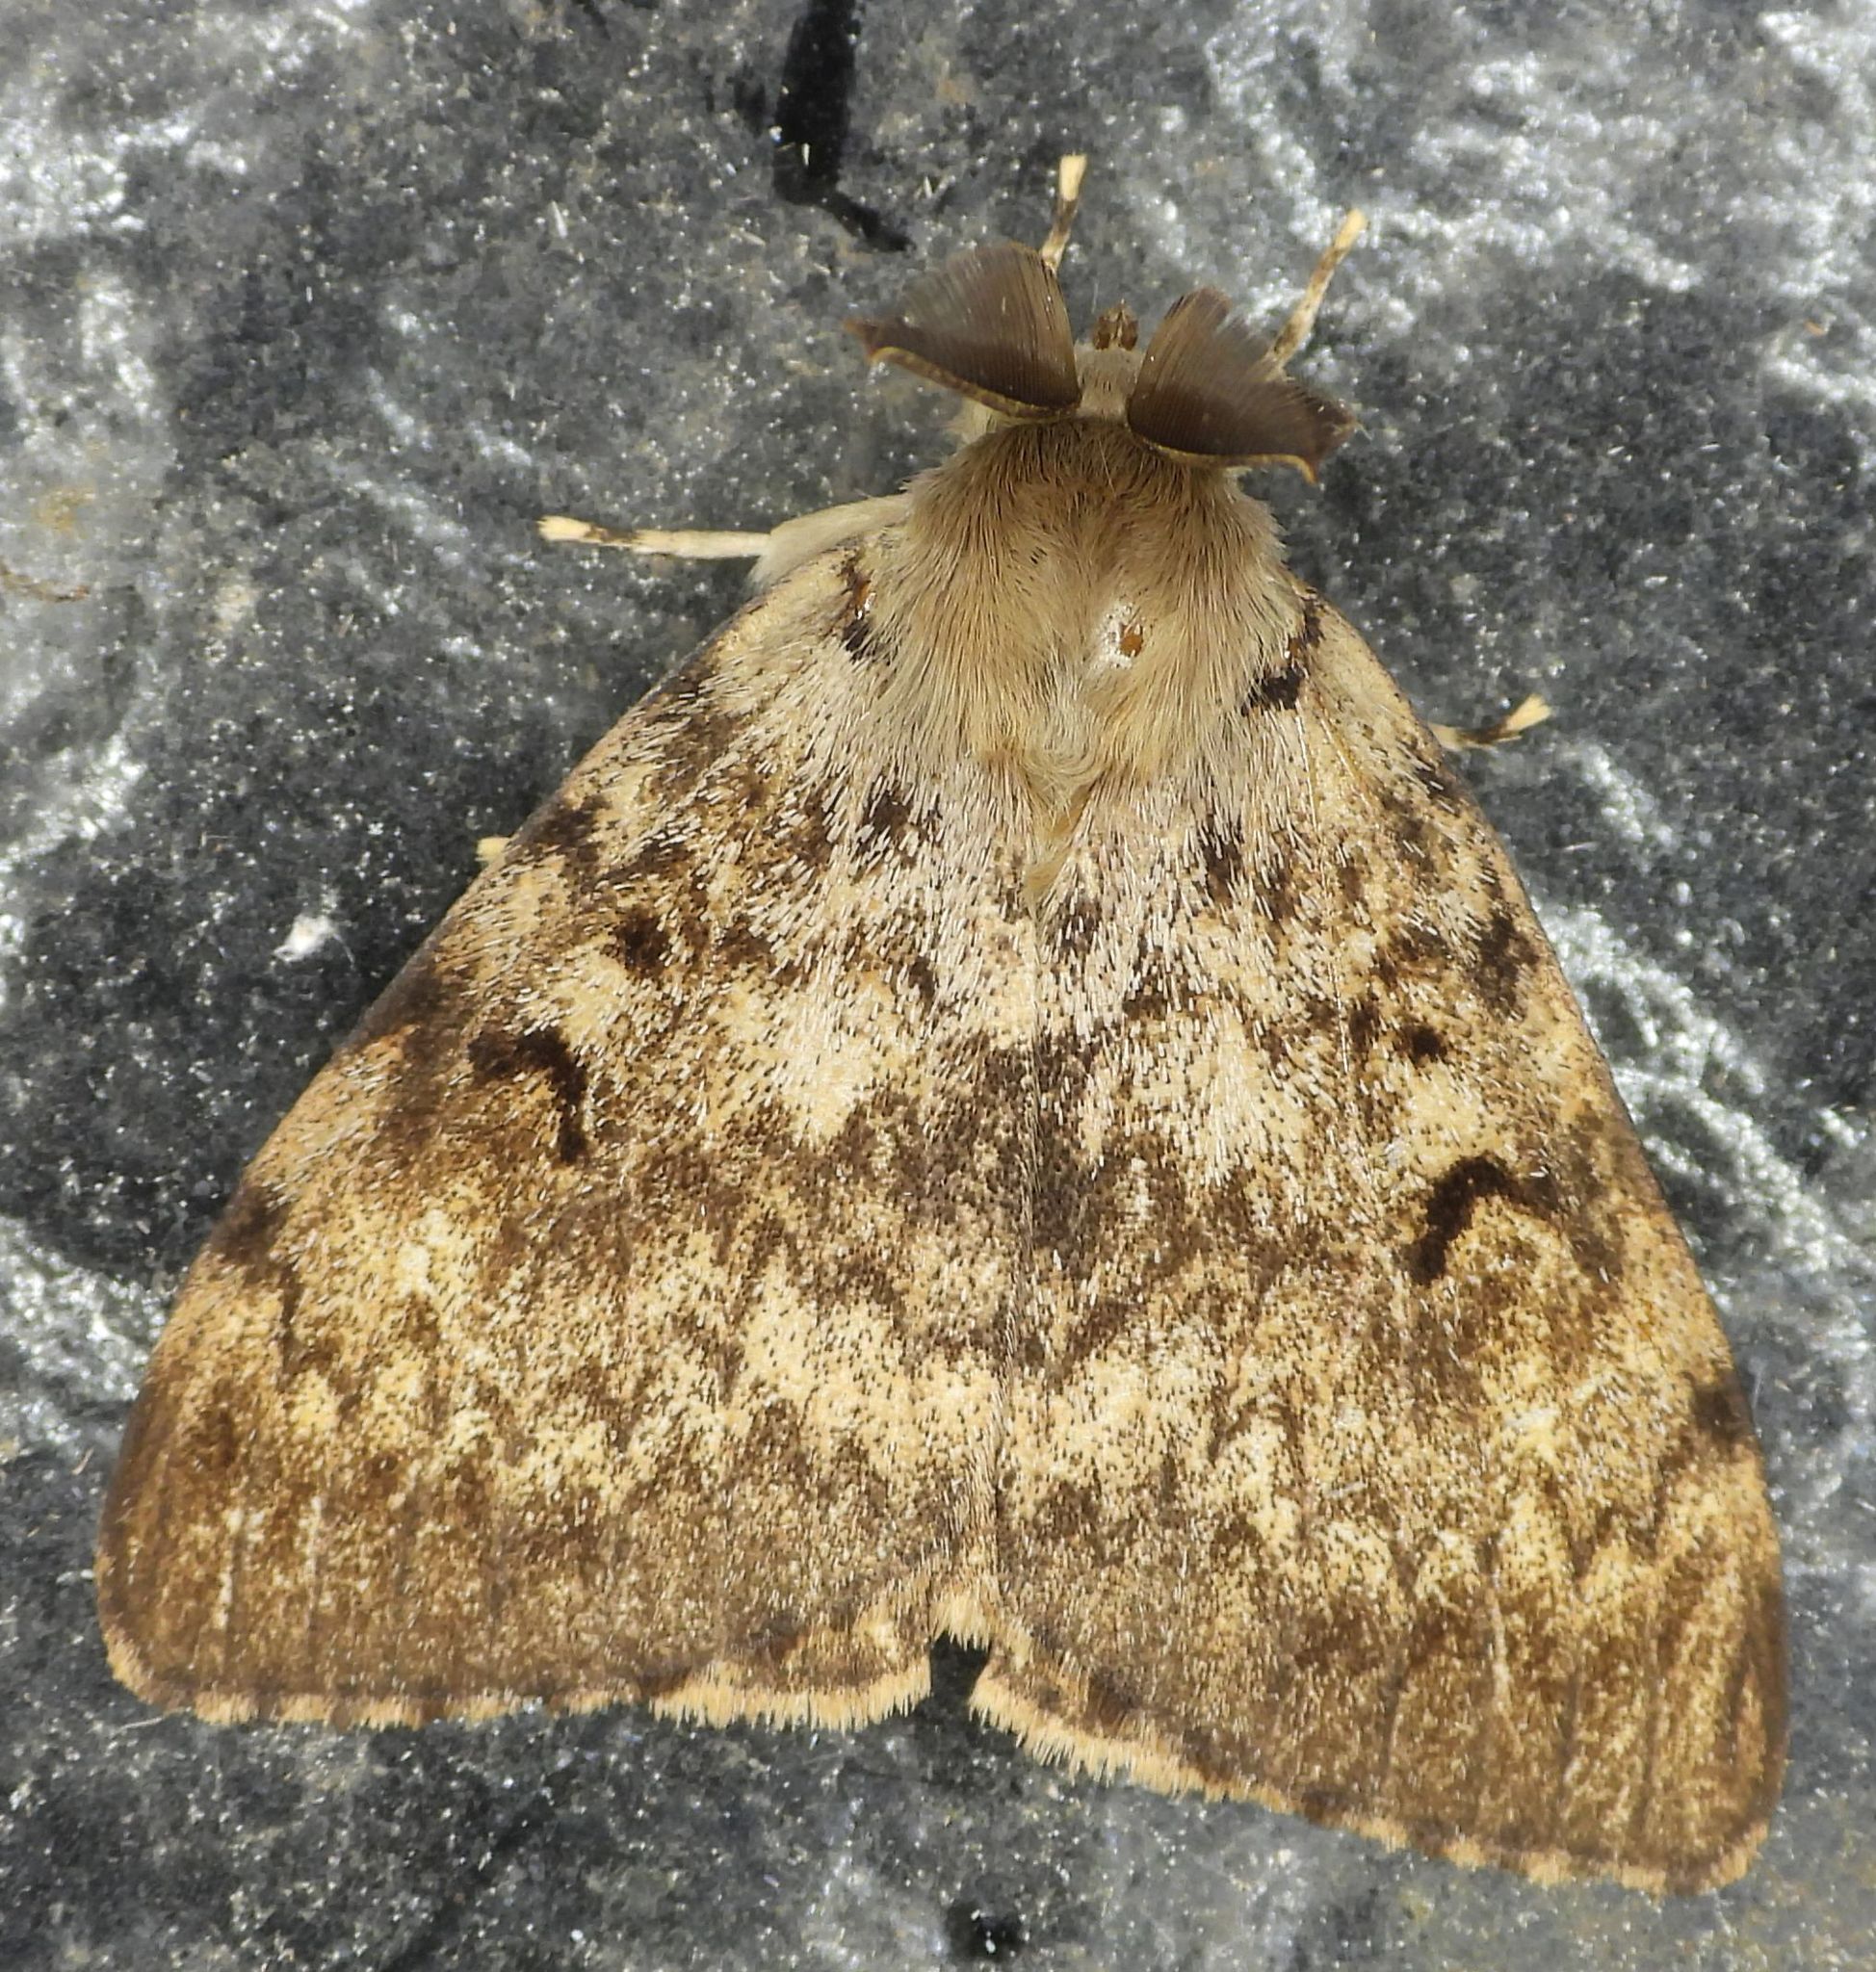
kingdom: Animalia
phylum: Arthropoda
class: Insecta
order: Lepidoptera
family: Erebidae
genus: Lymantria
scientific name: Lymantria dispar
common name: Gypsy moth
